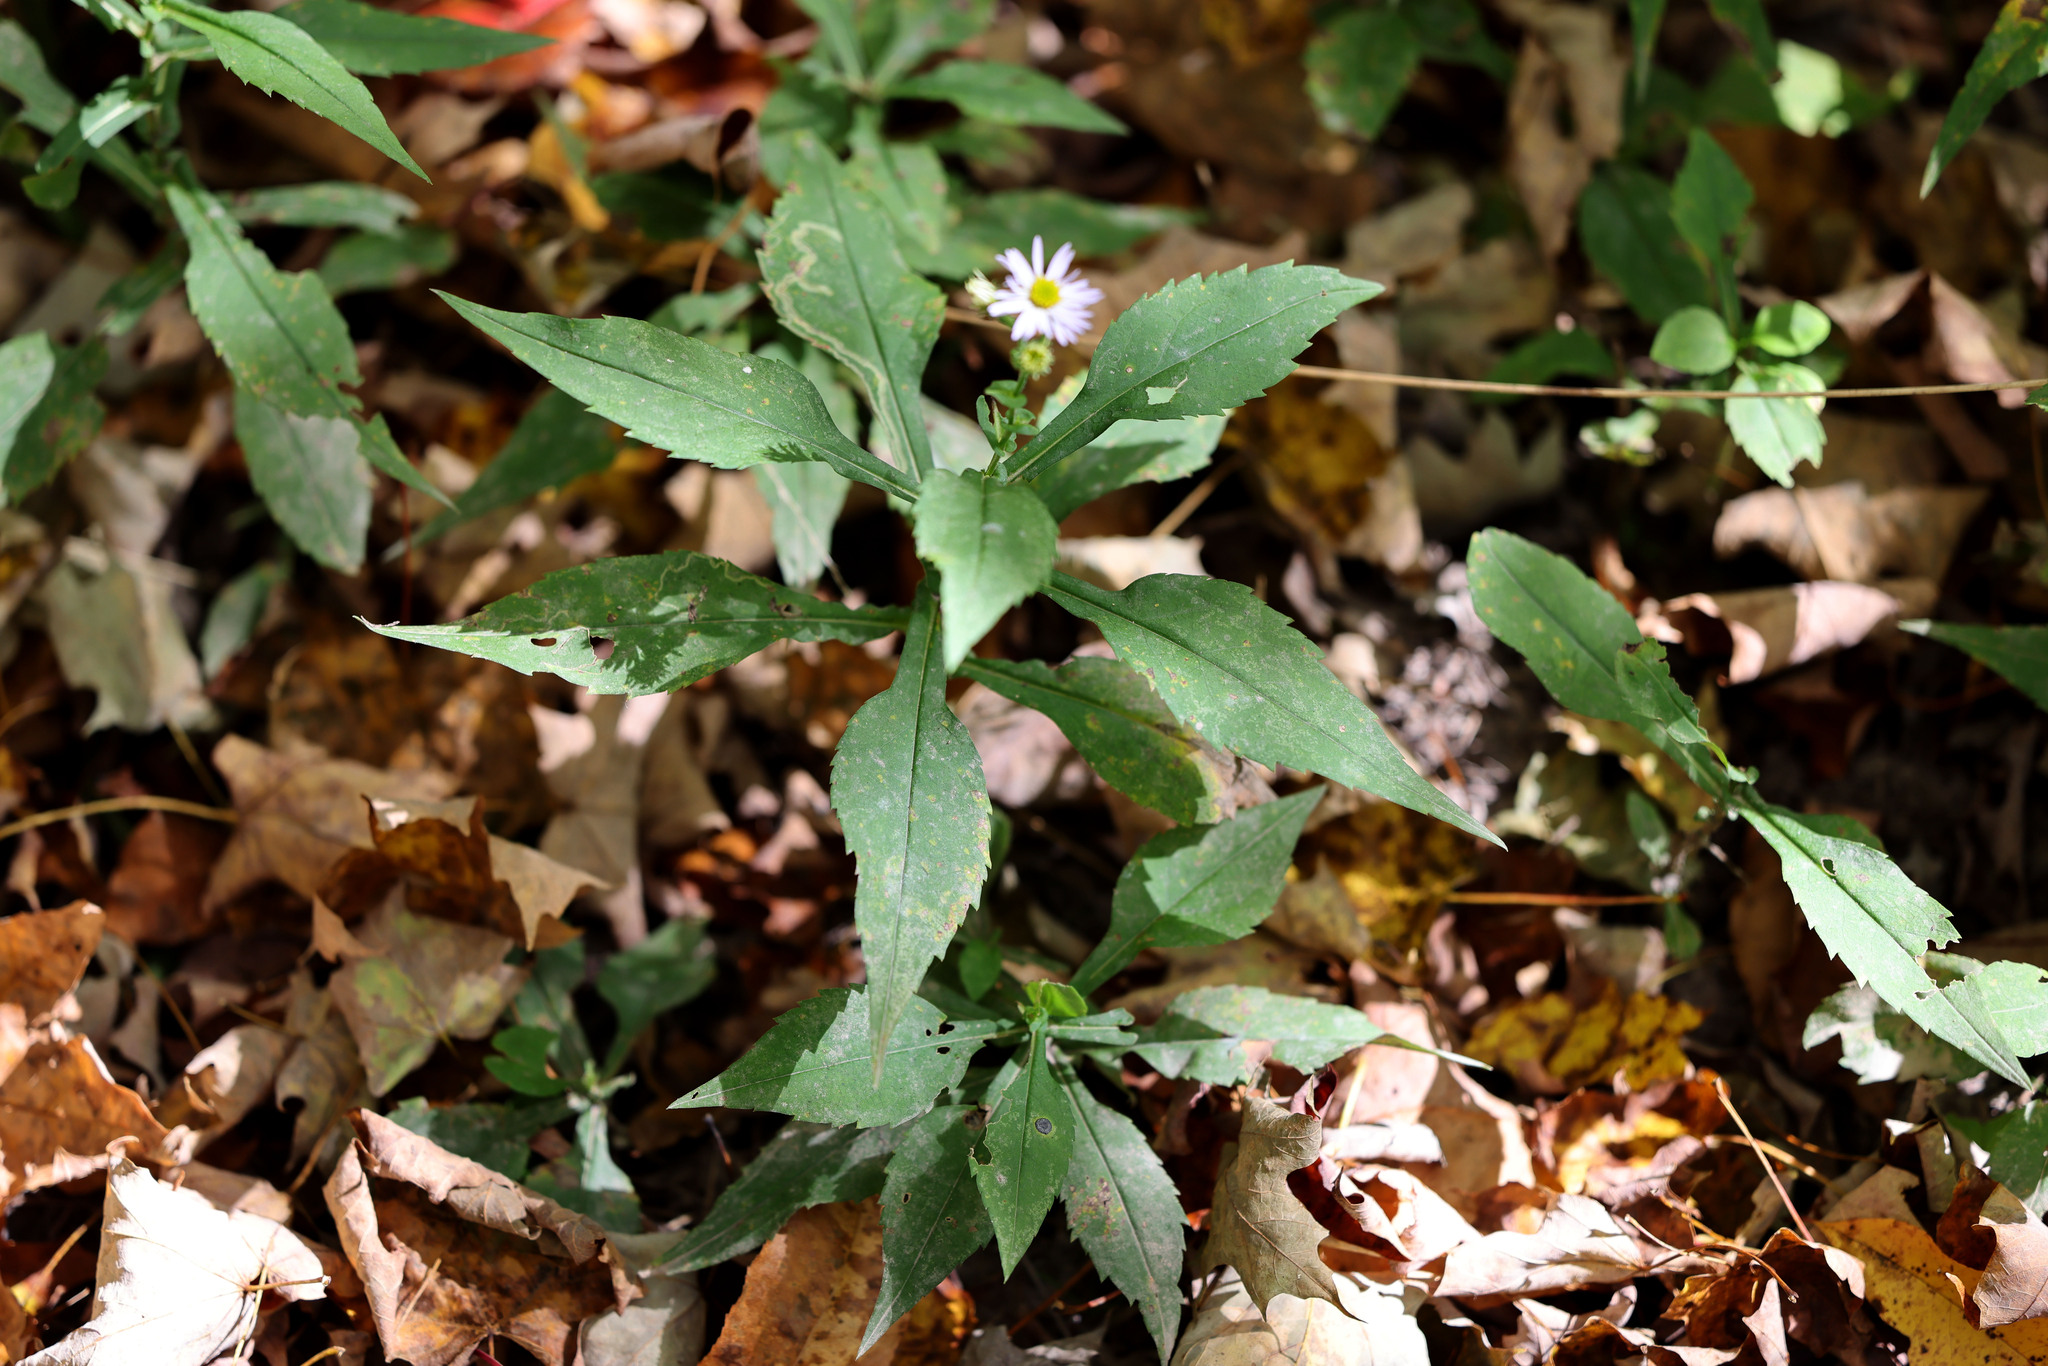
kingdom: Plantae
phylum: Tracheophyta
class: Magnoliopsida
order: Asterales
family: Asteraceae
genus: Symphyotrichum
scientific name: Symphyotrichum prenanthoides
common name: Crooked-stem aster
